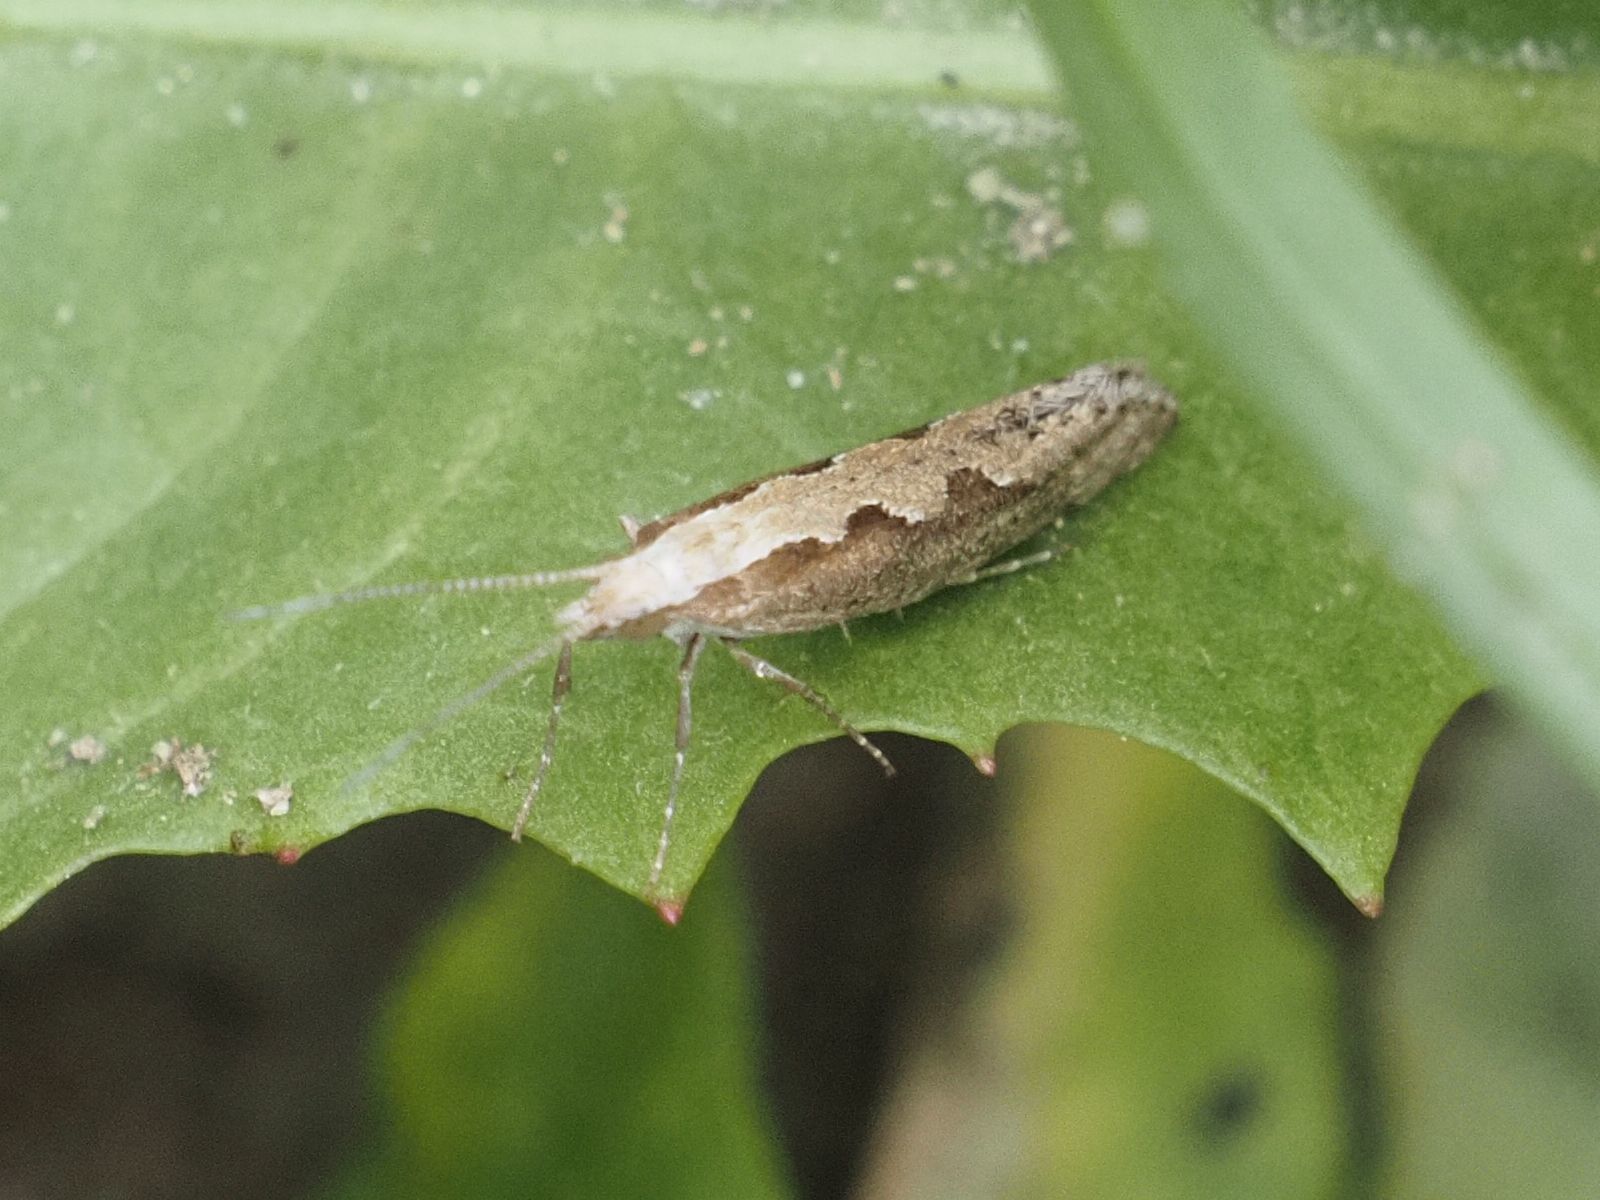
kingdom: Animalia
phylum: Arthropoda
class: Insecta
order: Lepidoptera
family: Plutellidae
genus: Plutella
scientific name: Plutella xylostella
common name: Diamond-back moth
